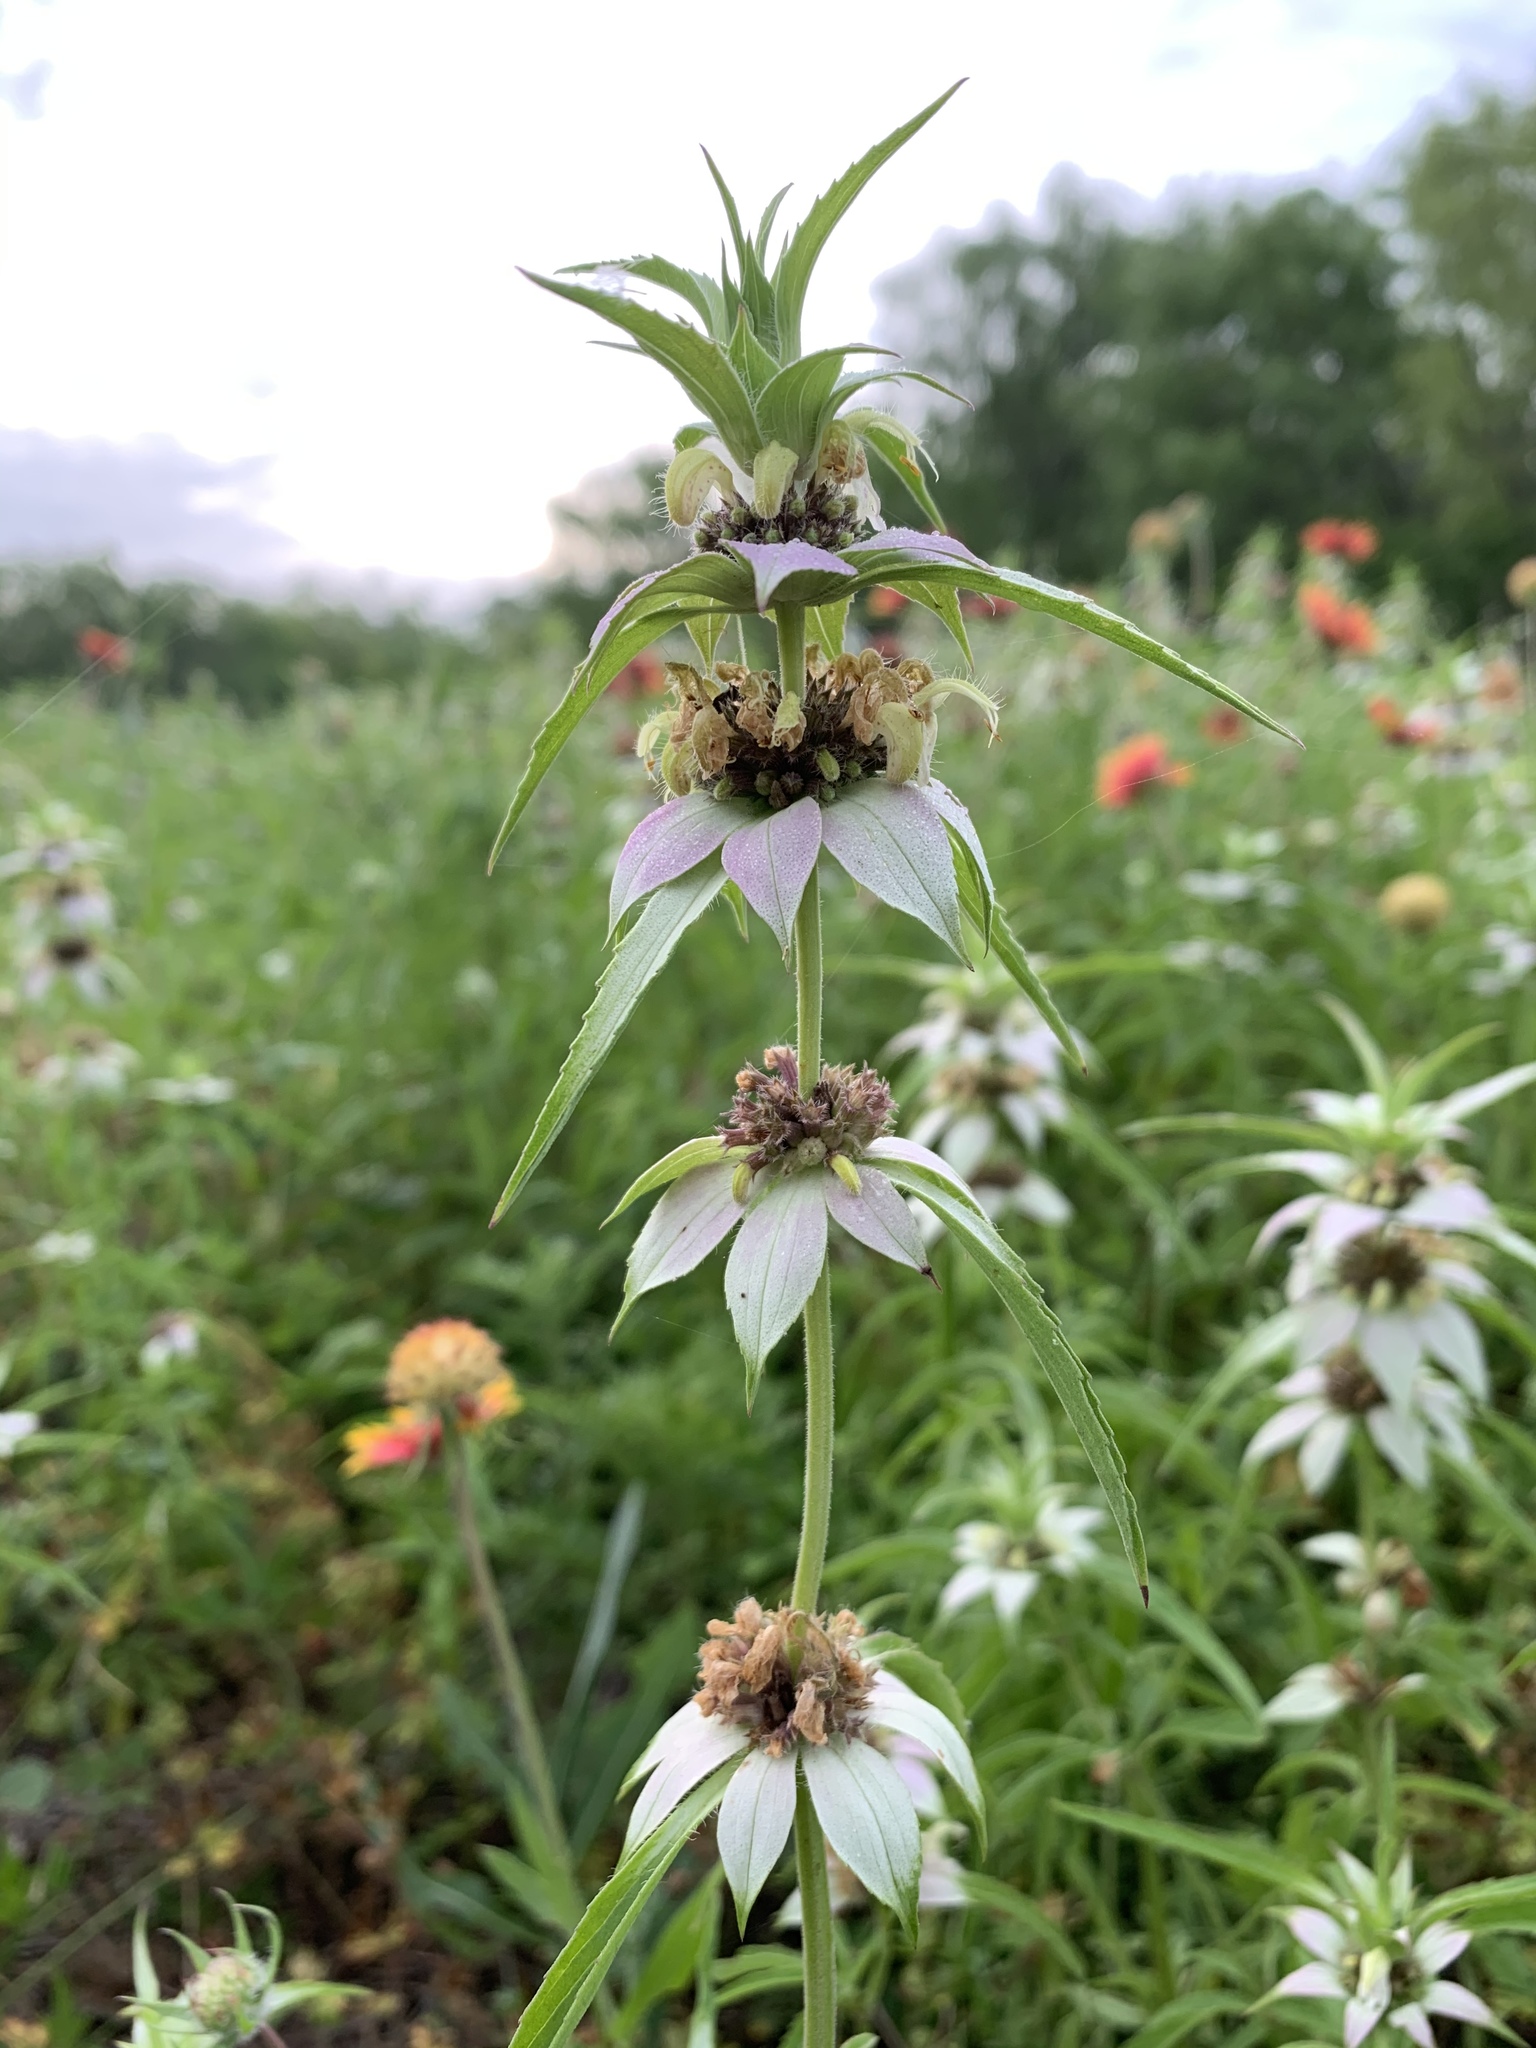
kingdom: Plantae
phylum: Tracheophyta
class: Magnoliopsida
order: Lamiales
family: Lamiaceae
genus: Monarda
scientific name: Monarda punctata
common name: Dotted monarda
